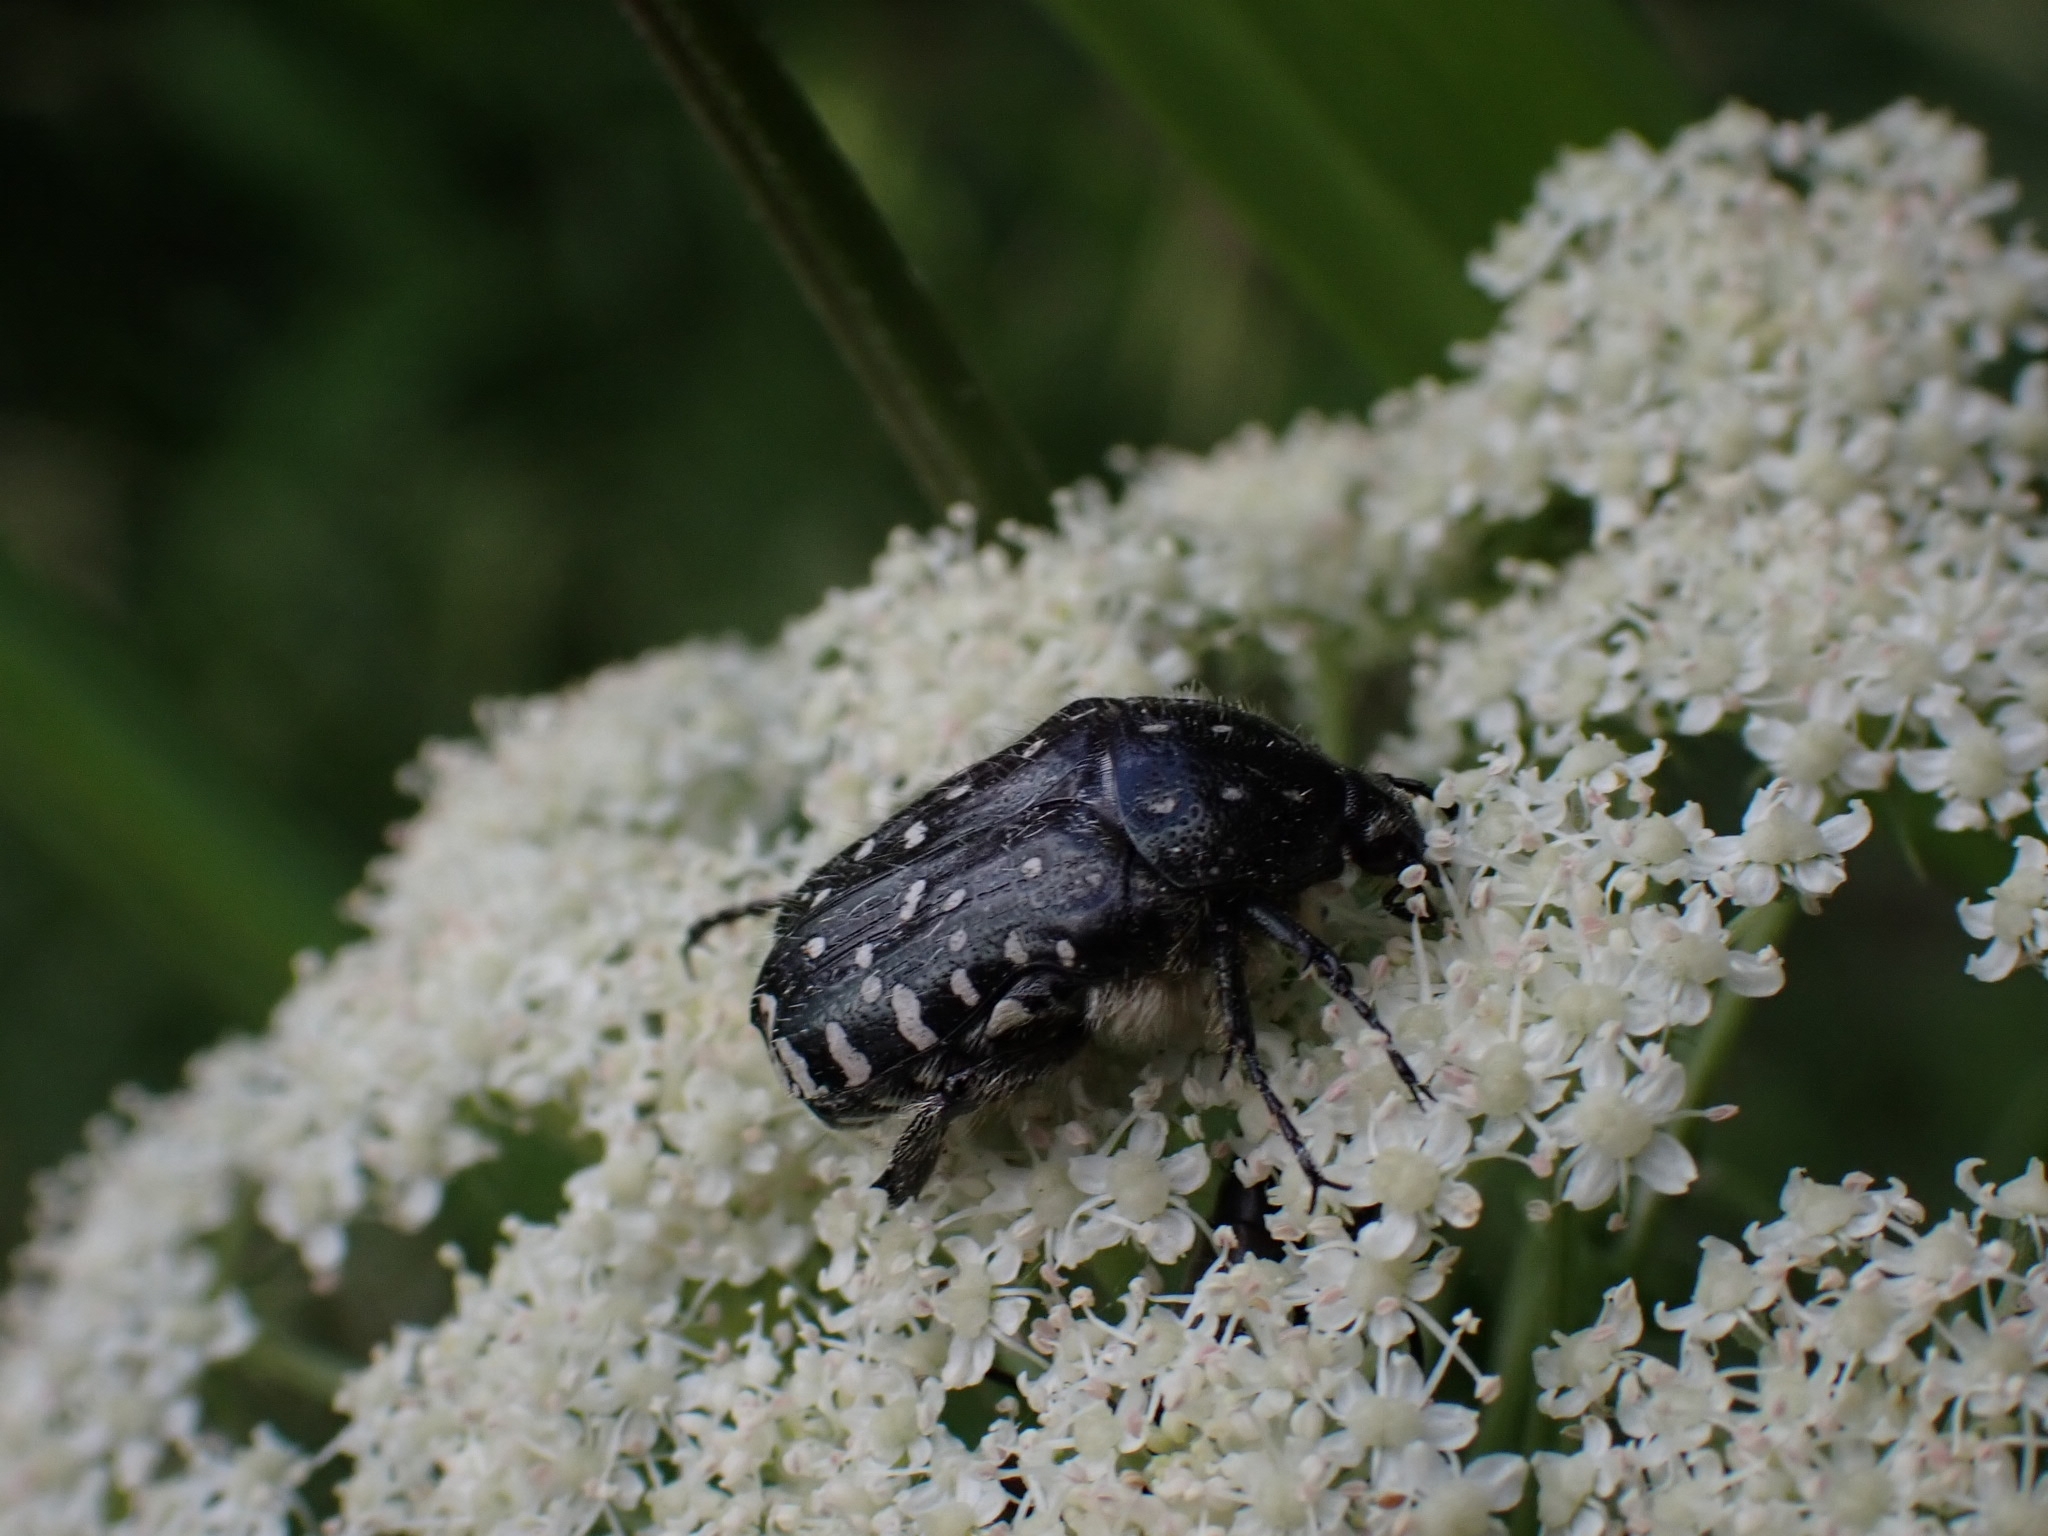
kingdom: Animalia
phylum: Arthropoda
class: Insecta
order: Coleoptera
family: Scarabaeidae
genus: Oxythyrea
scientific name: Oxythyrea funesta
